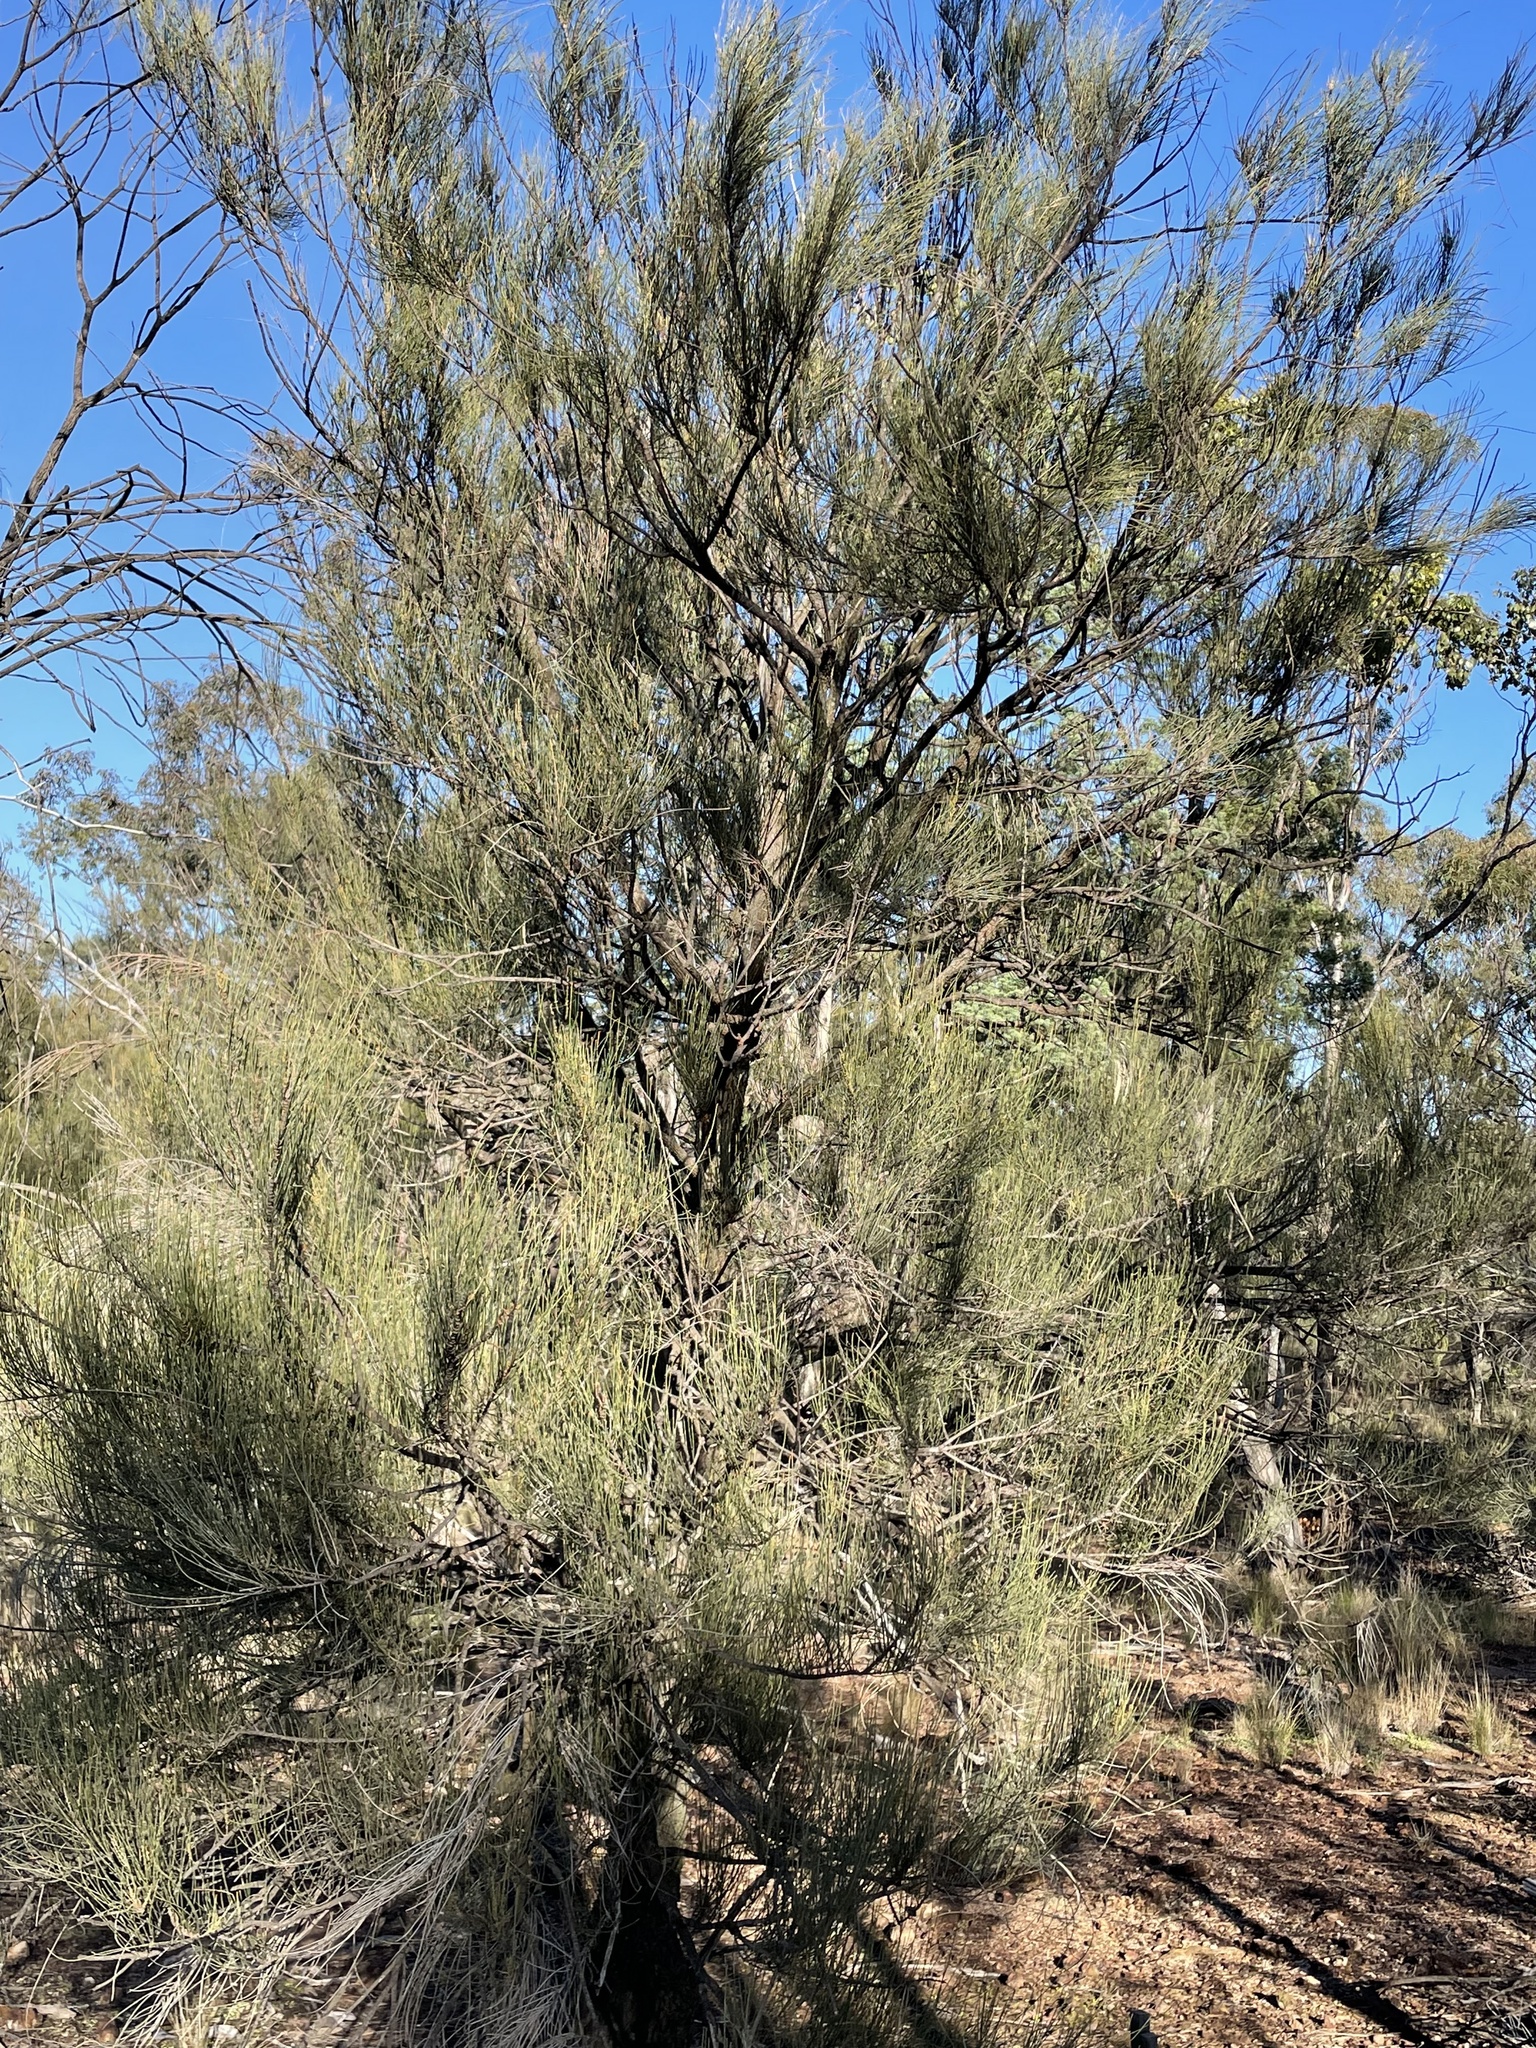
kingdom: Plantae
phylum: Tracheophyta
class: Magnoliopsida
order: Fagales
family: Casuarinaceae
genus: Allocasuarina
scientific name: Allocasuarina luehmannii
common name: Bull-oak
